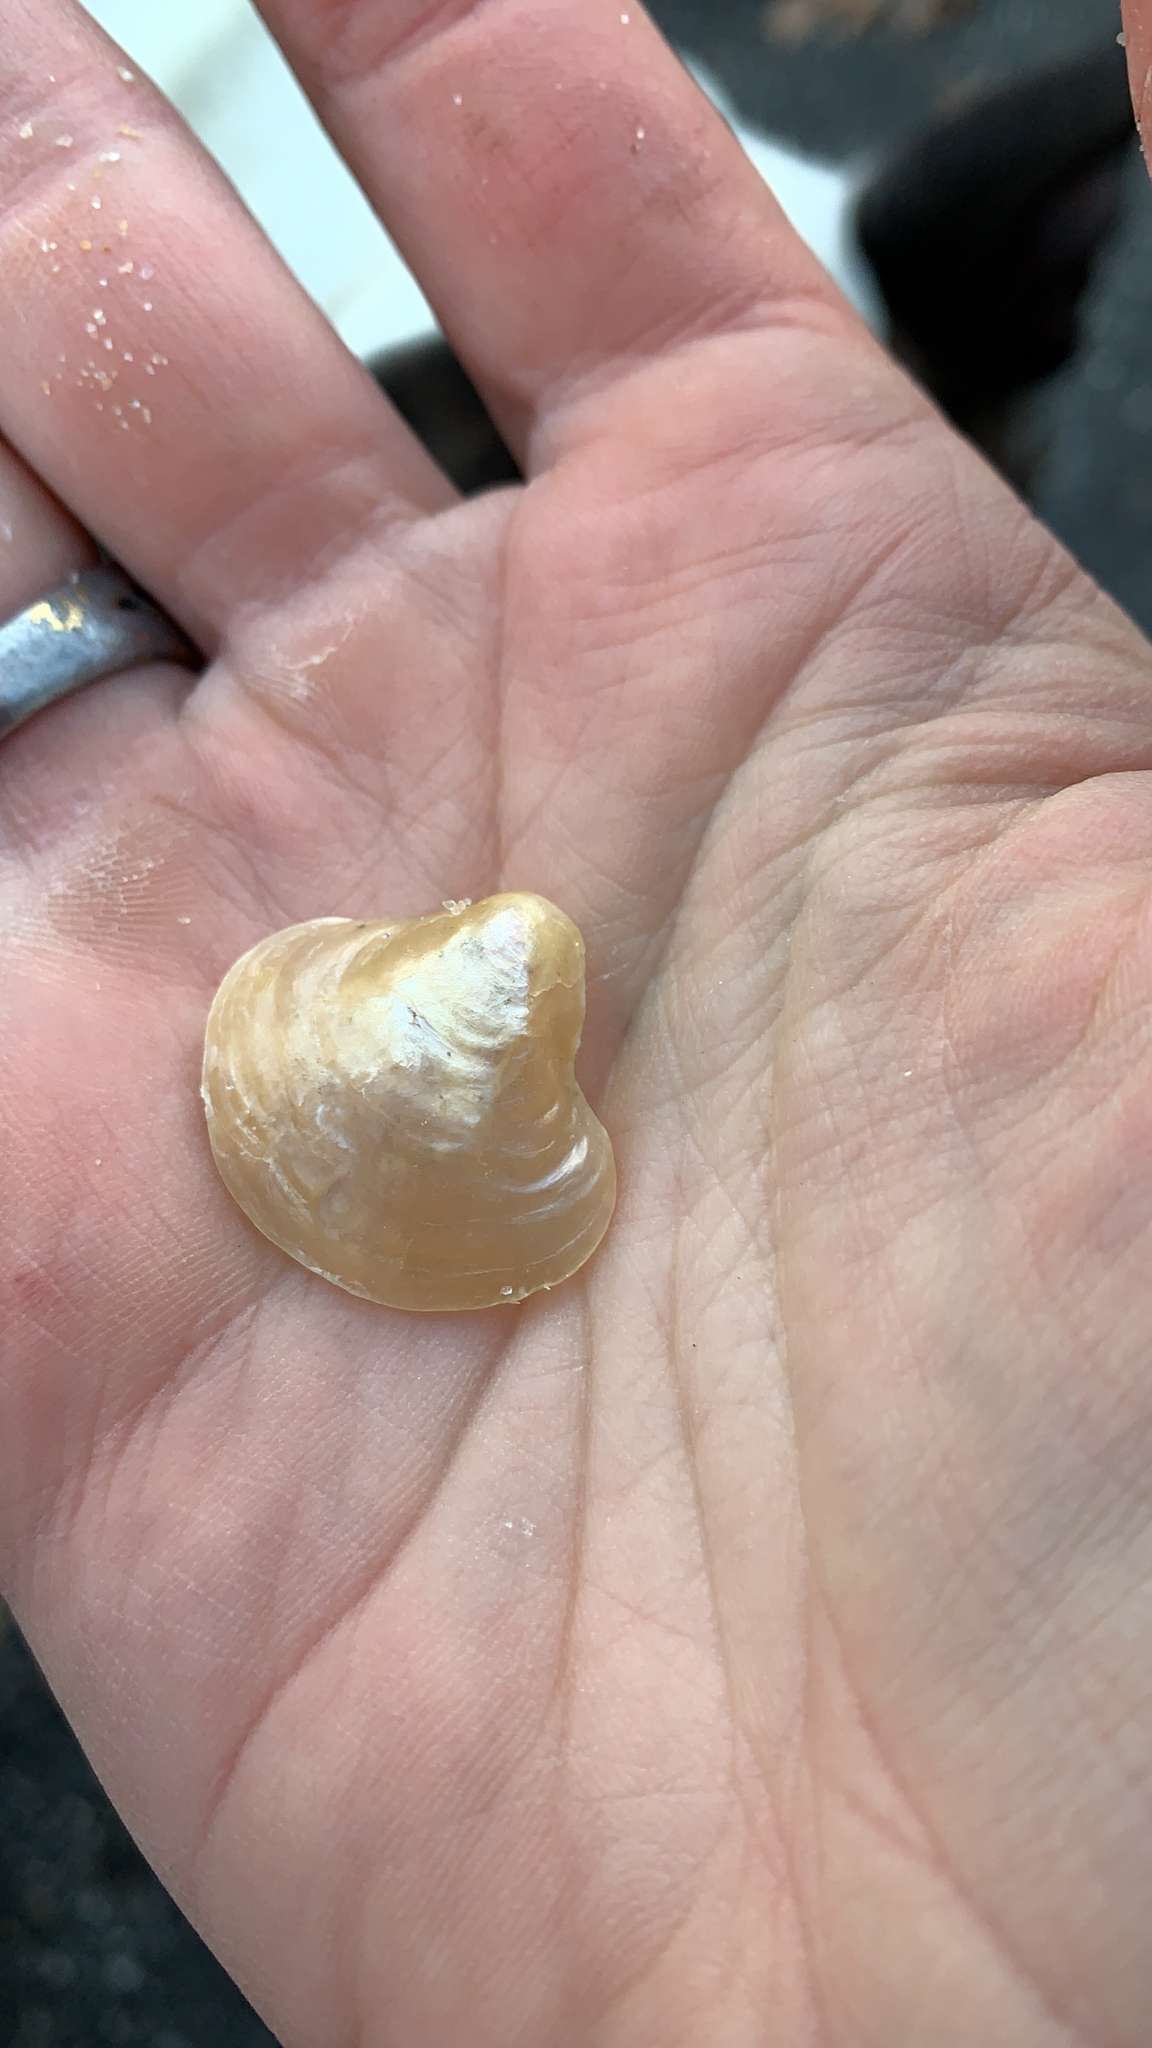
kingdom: Animalia
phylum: Mollusca
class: Bivalvia
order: Pectinida
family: Anomiidae
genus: Anomia
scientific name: Anomia simplex
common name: Common jingle shell
